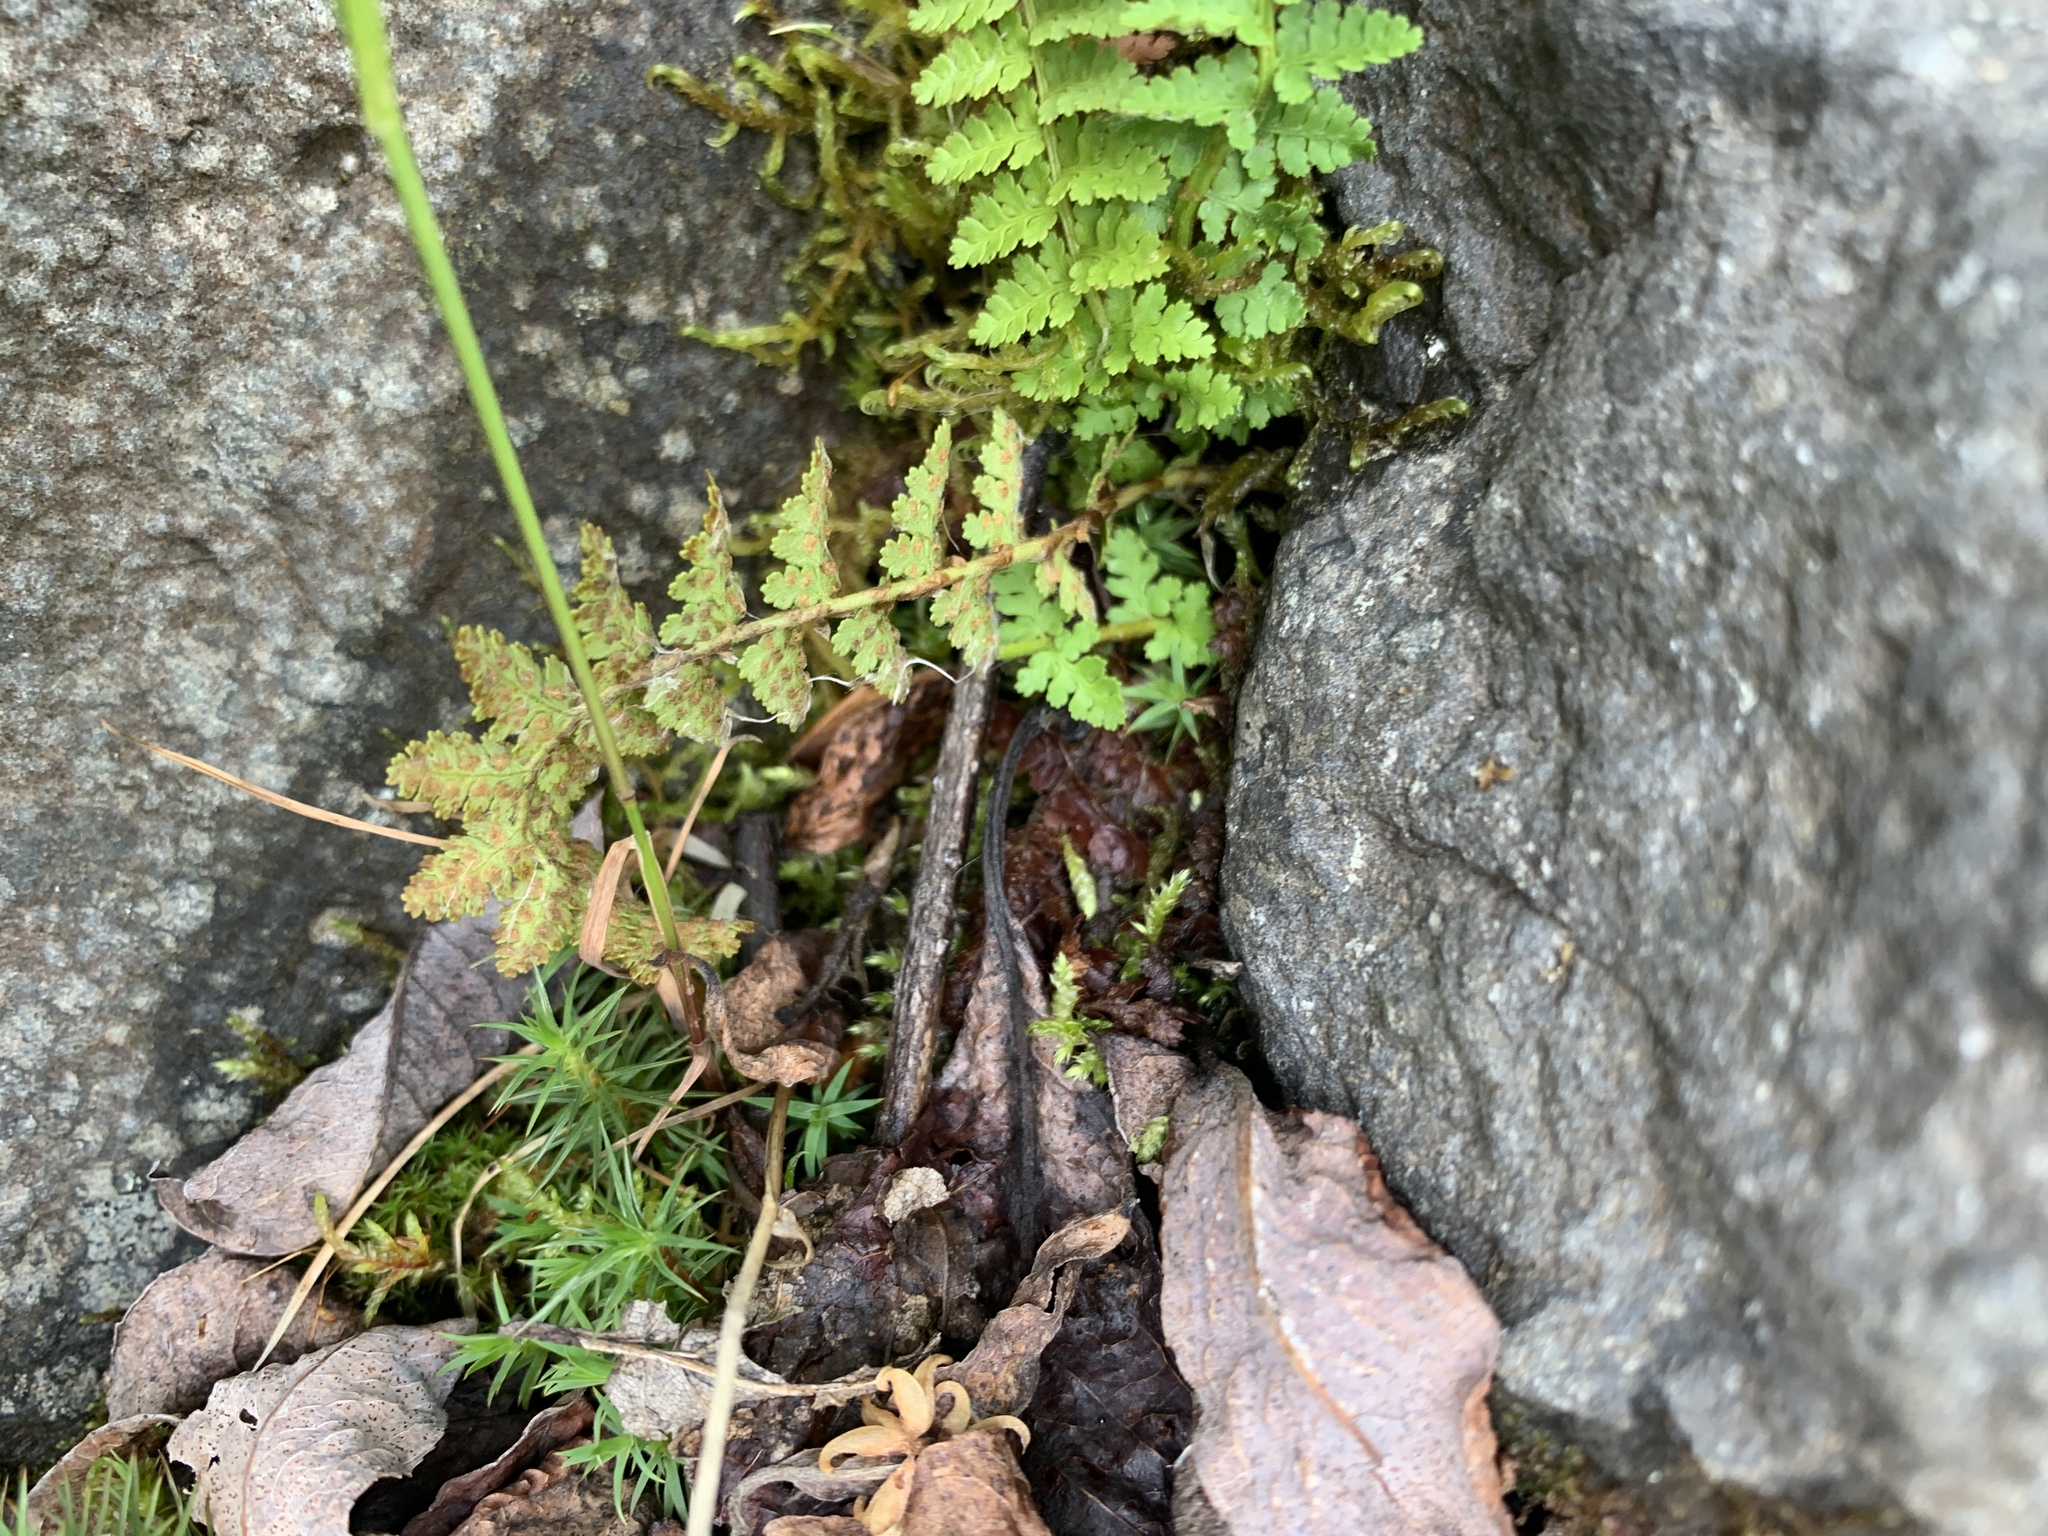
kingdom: Plantae
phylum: Tracheophyta
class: Polypodiopsida
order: Polypodiales
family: Dryopteridaceae
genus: Dryopteris
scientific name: Dryopteris fragrans
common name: Fragrant wood fern
